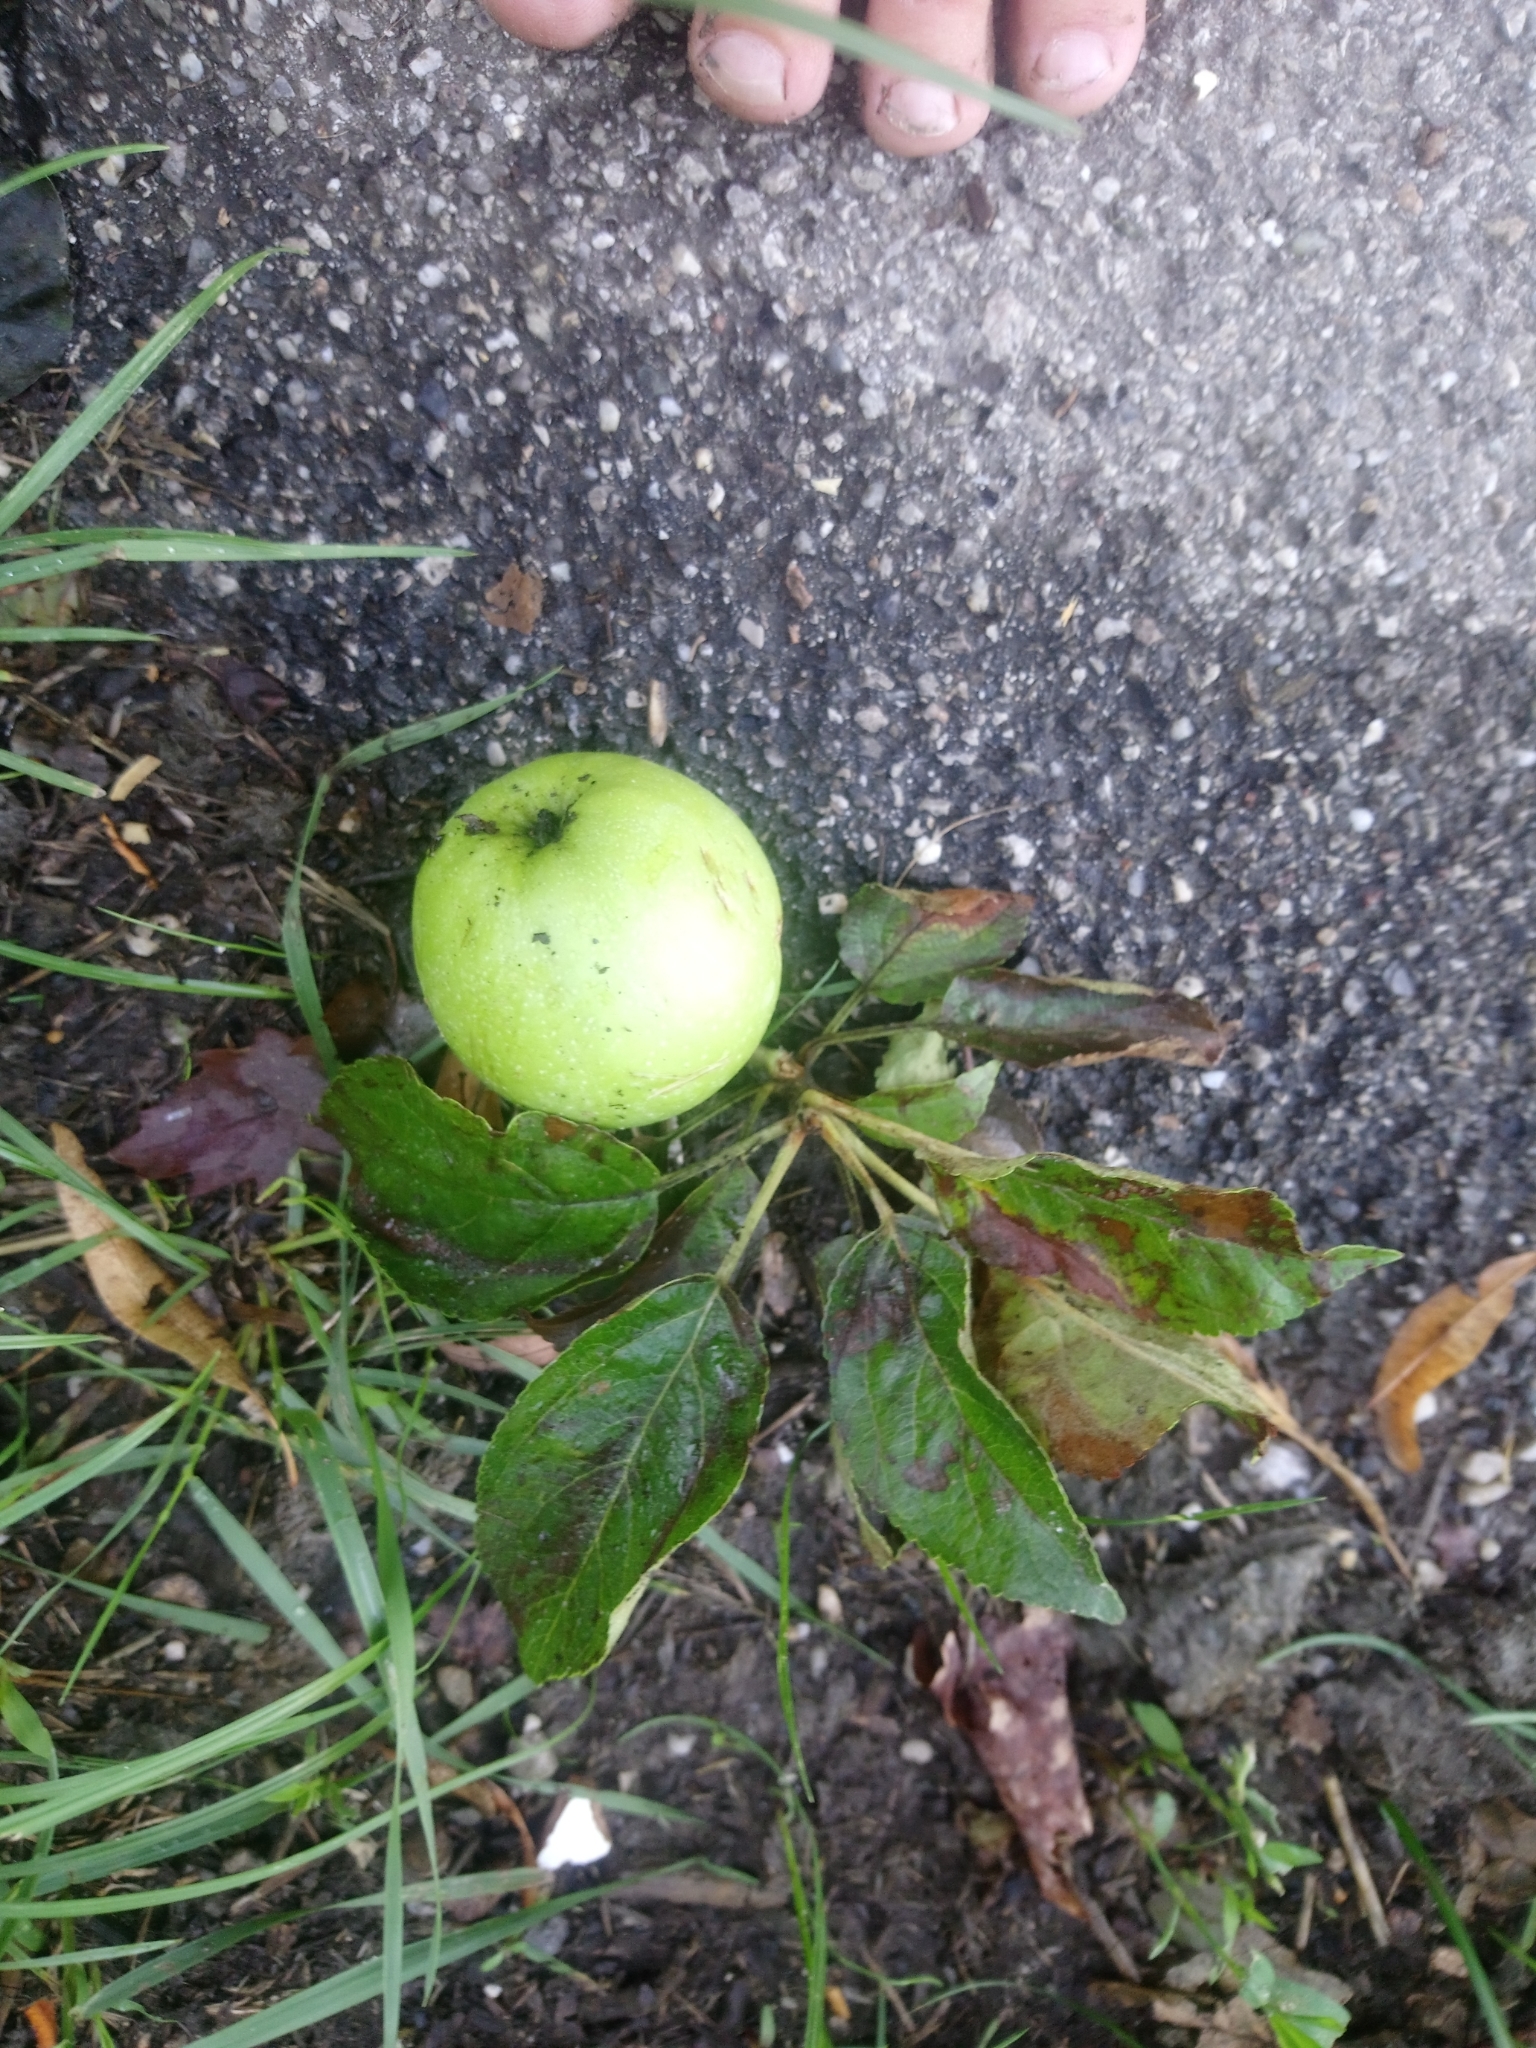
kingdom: Plantae
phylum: Tracheophyta
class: Magnoliopsida
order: Rosales
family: Rosaceae
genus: Malus
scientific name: Malus domestica
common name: Apple
